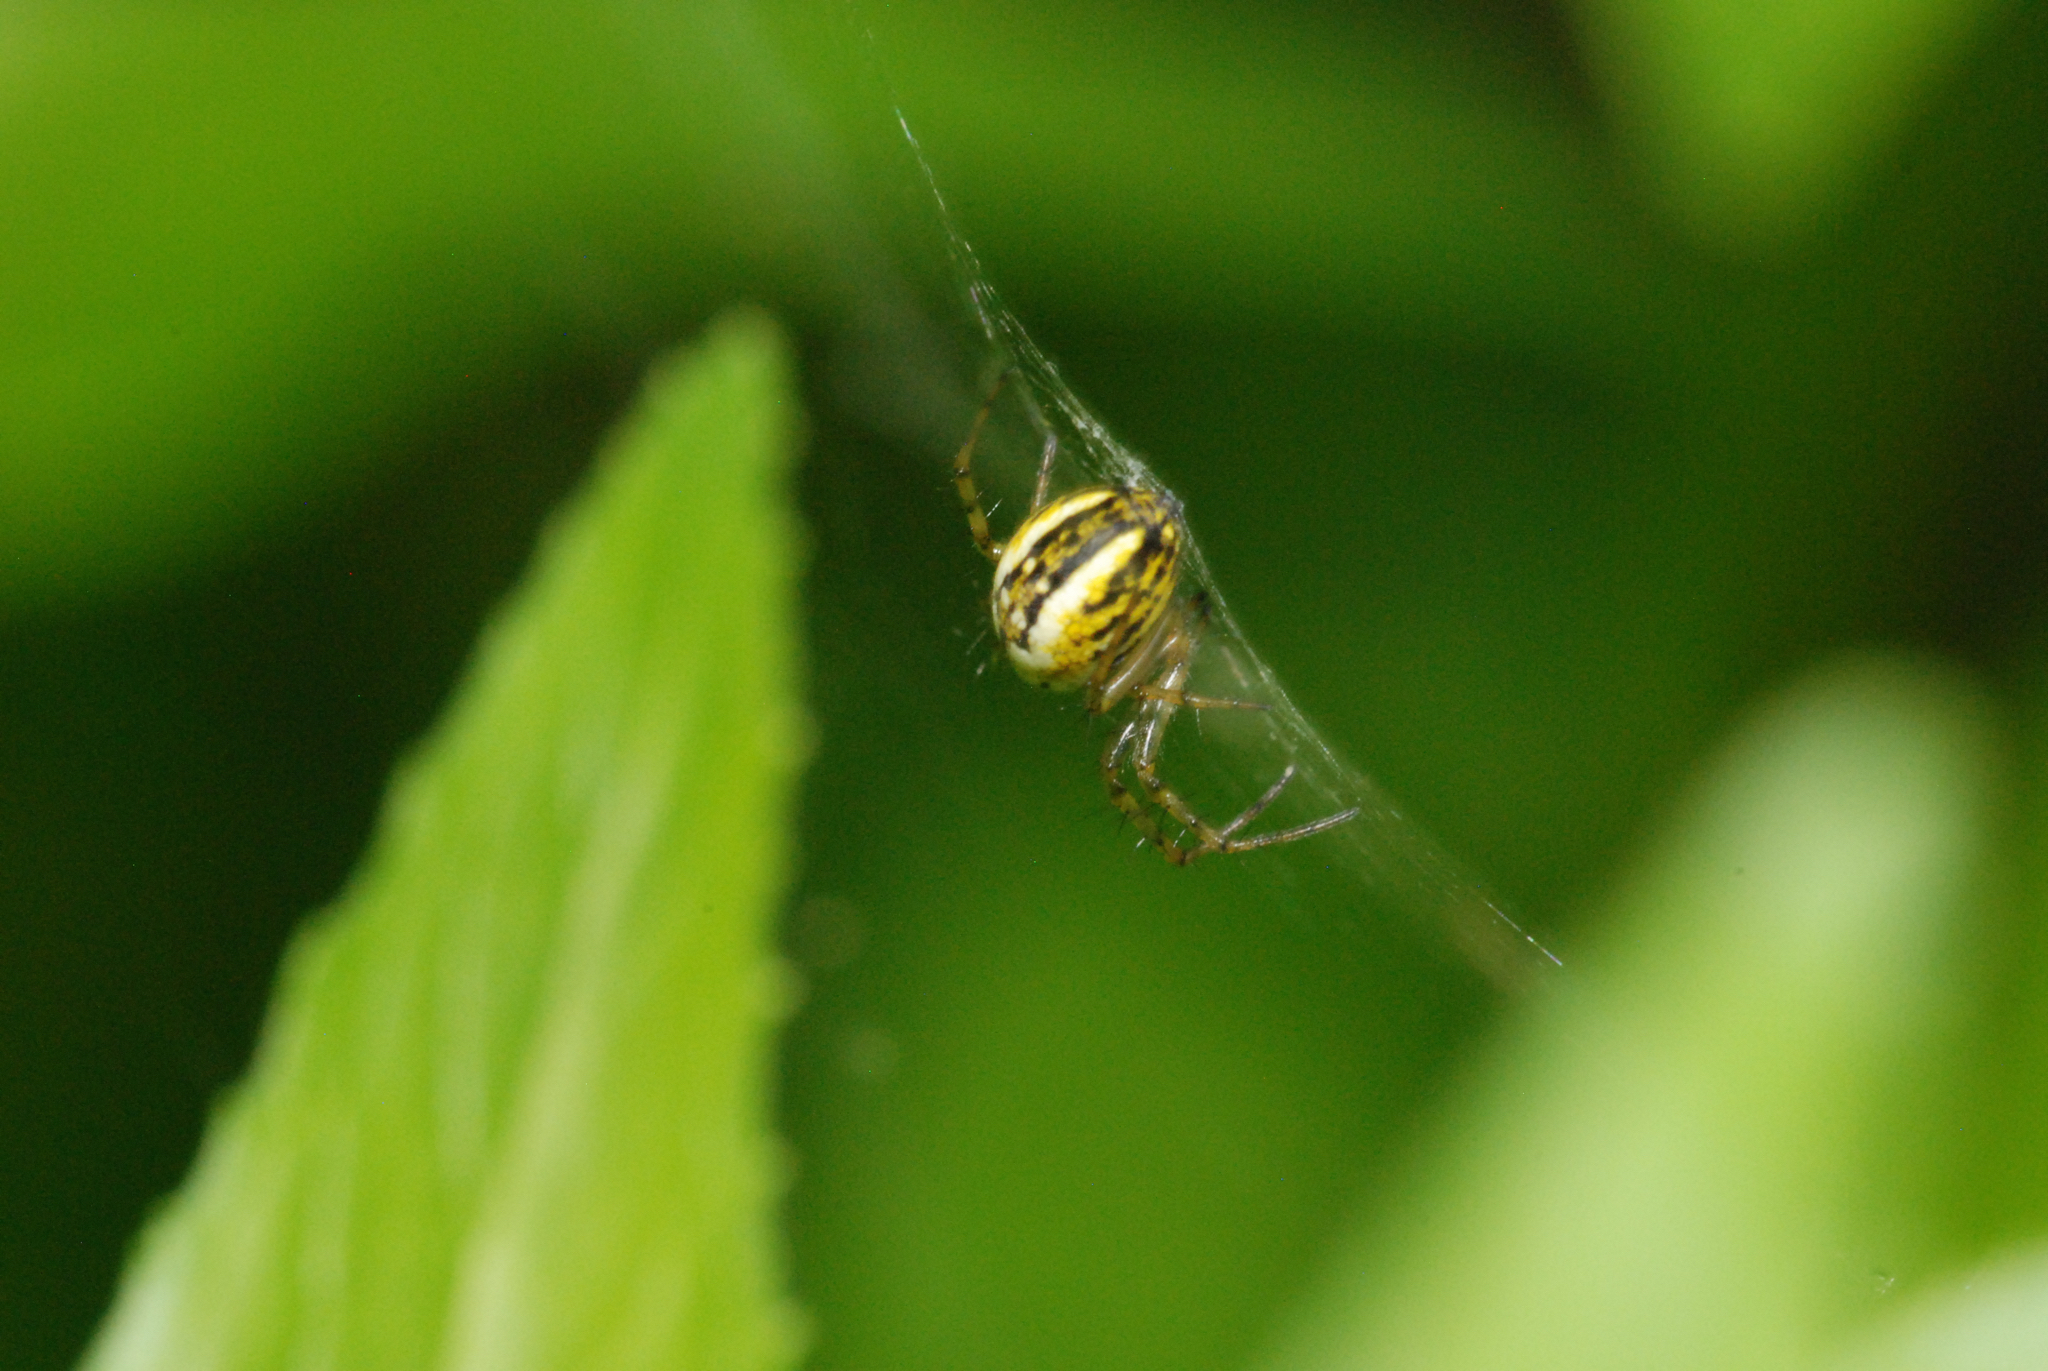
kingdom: Animalia
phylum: Arthropoda
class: Arachnida
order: Araneae
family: Araneidae
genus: Mangora
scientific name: Mangora acalypha
